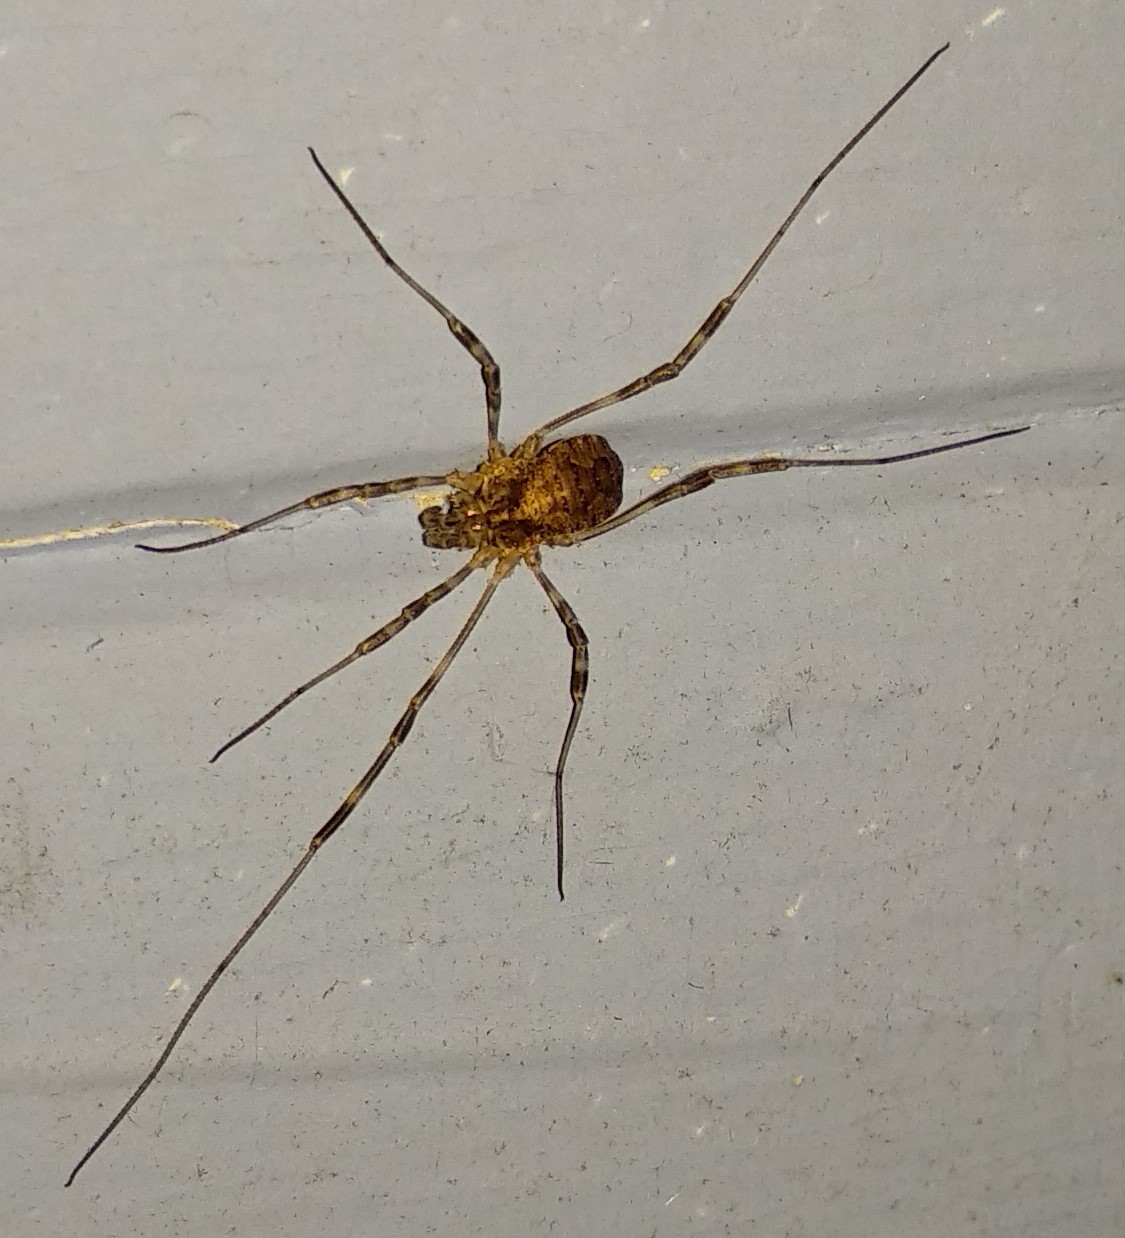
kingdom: Animalia
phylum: Arthropoda
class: Arachnida
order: Opiliones
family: Phalangiidae
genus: Odiellus
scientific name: Odiellus pictus
